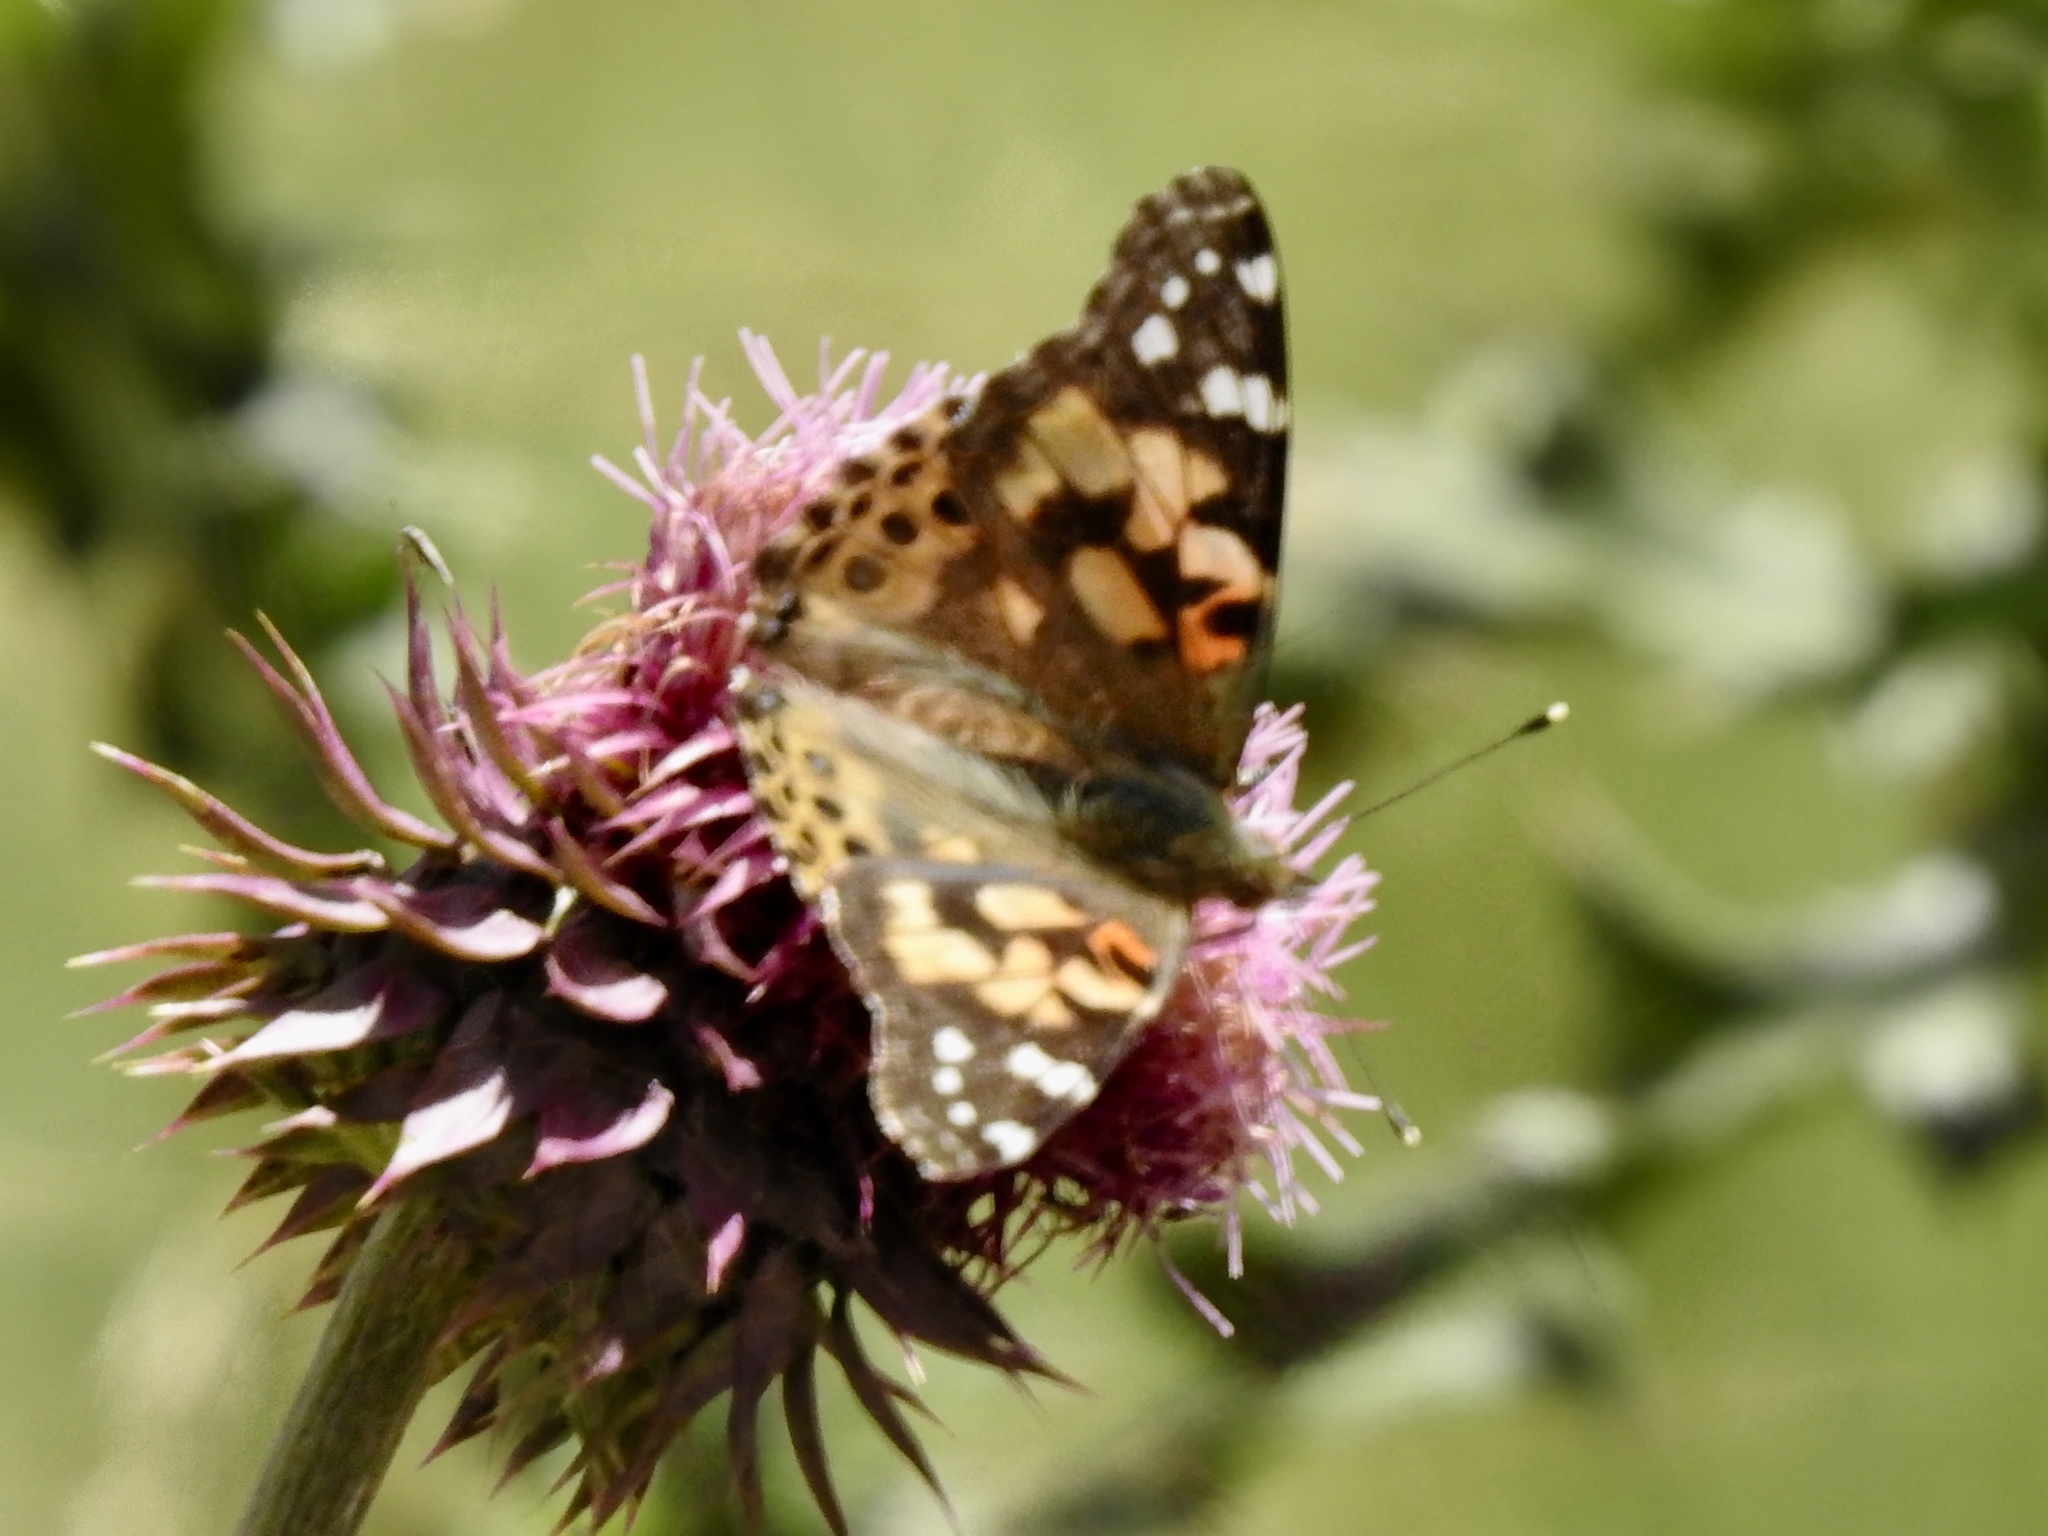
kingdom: Animalia
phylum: Arthropoda
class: Insecta
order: Lepidoptera
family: Nymphalidae
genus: Vanessa
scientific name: Vanessa cardui
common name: Painted lady
